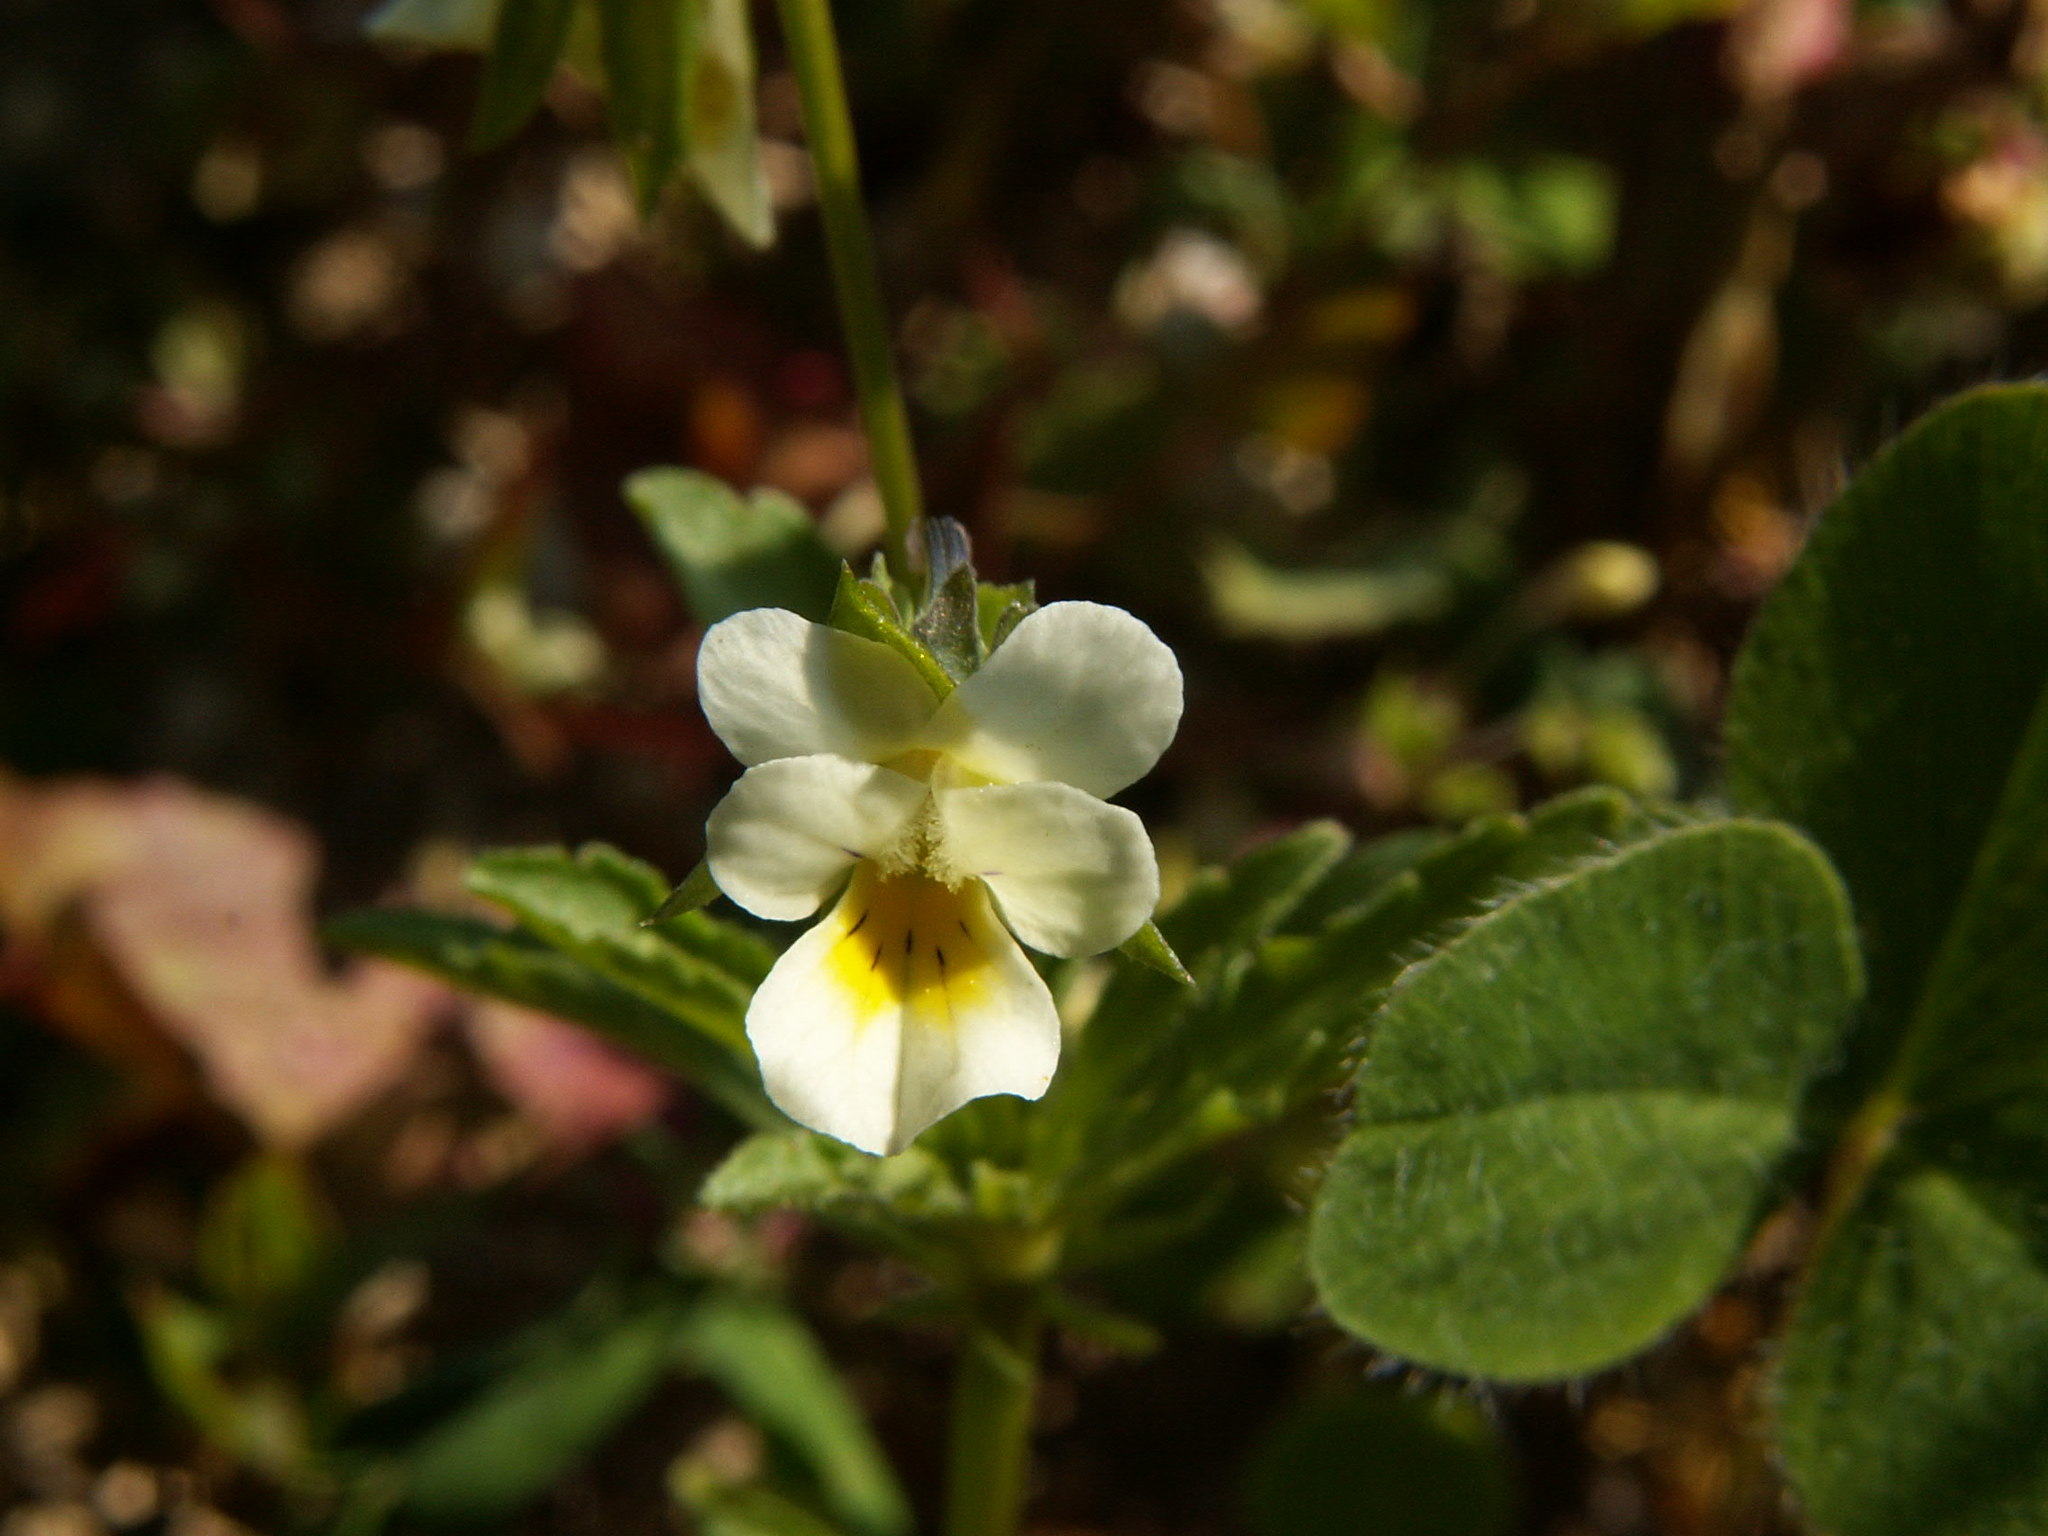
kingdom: Plantae
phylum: Tracheophyta
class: Magnoliopsida
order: Malpighiales
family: Violaceae
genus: Viola
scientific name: Viola arvensis
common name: Field pansy
